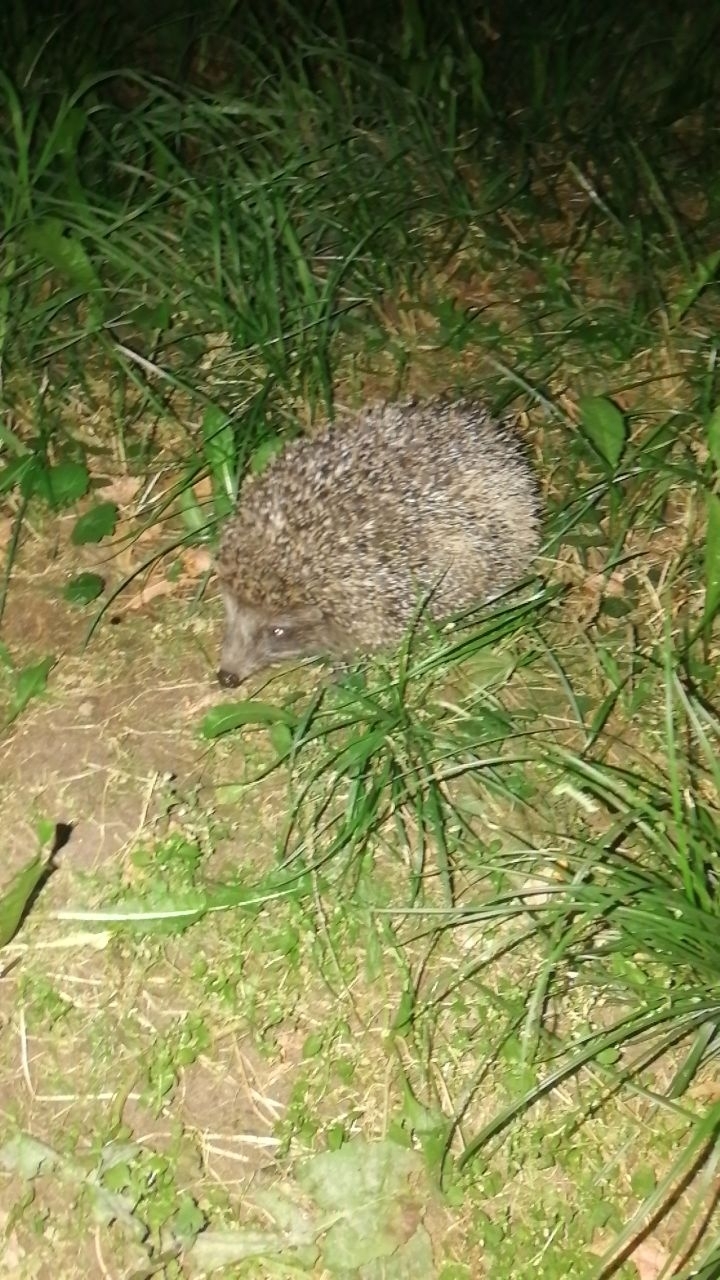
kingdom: Animalia
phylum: Chordata
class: Mammalia
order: Erinaceomorpha
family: Erinaceidae
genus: Erinaceus
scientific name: Erinaceus roumanicus
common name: Northern white-breasted hedgehog
